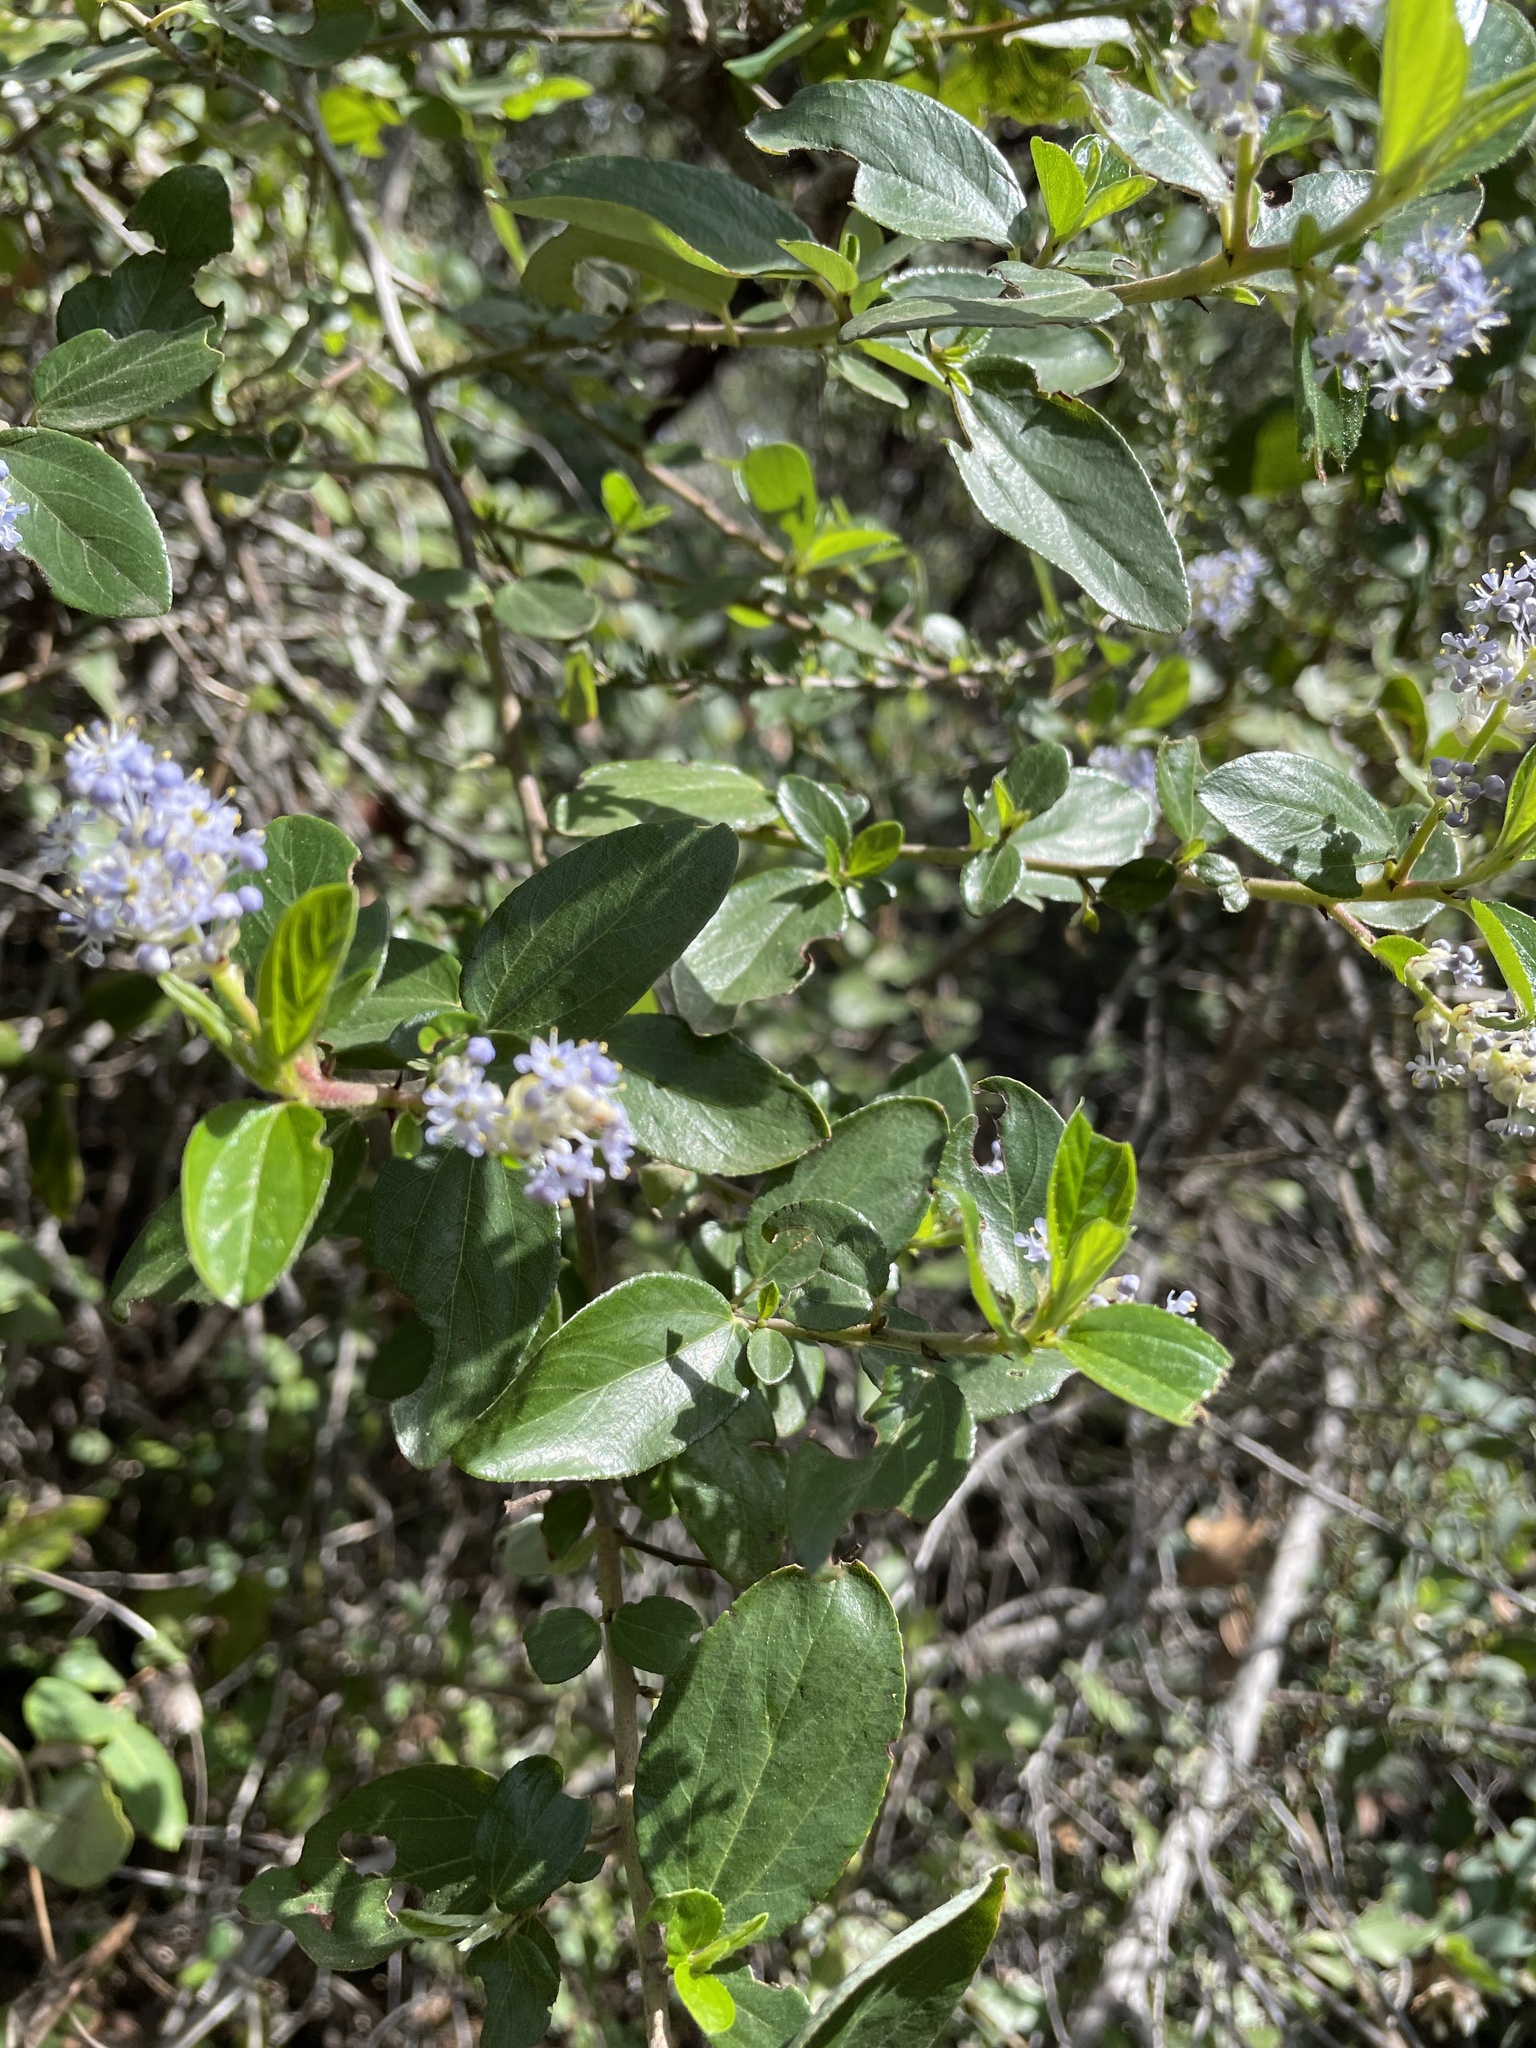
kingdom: Plantae
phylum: Tracheophyta
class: Magnoliopsida
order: Rosales
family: Rhamnaceae
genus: Ceanothus
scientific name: Ceanothus sorediatus
